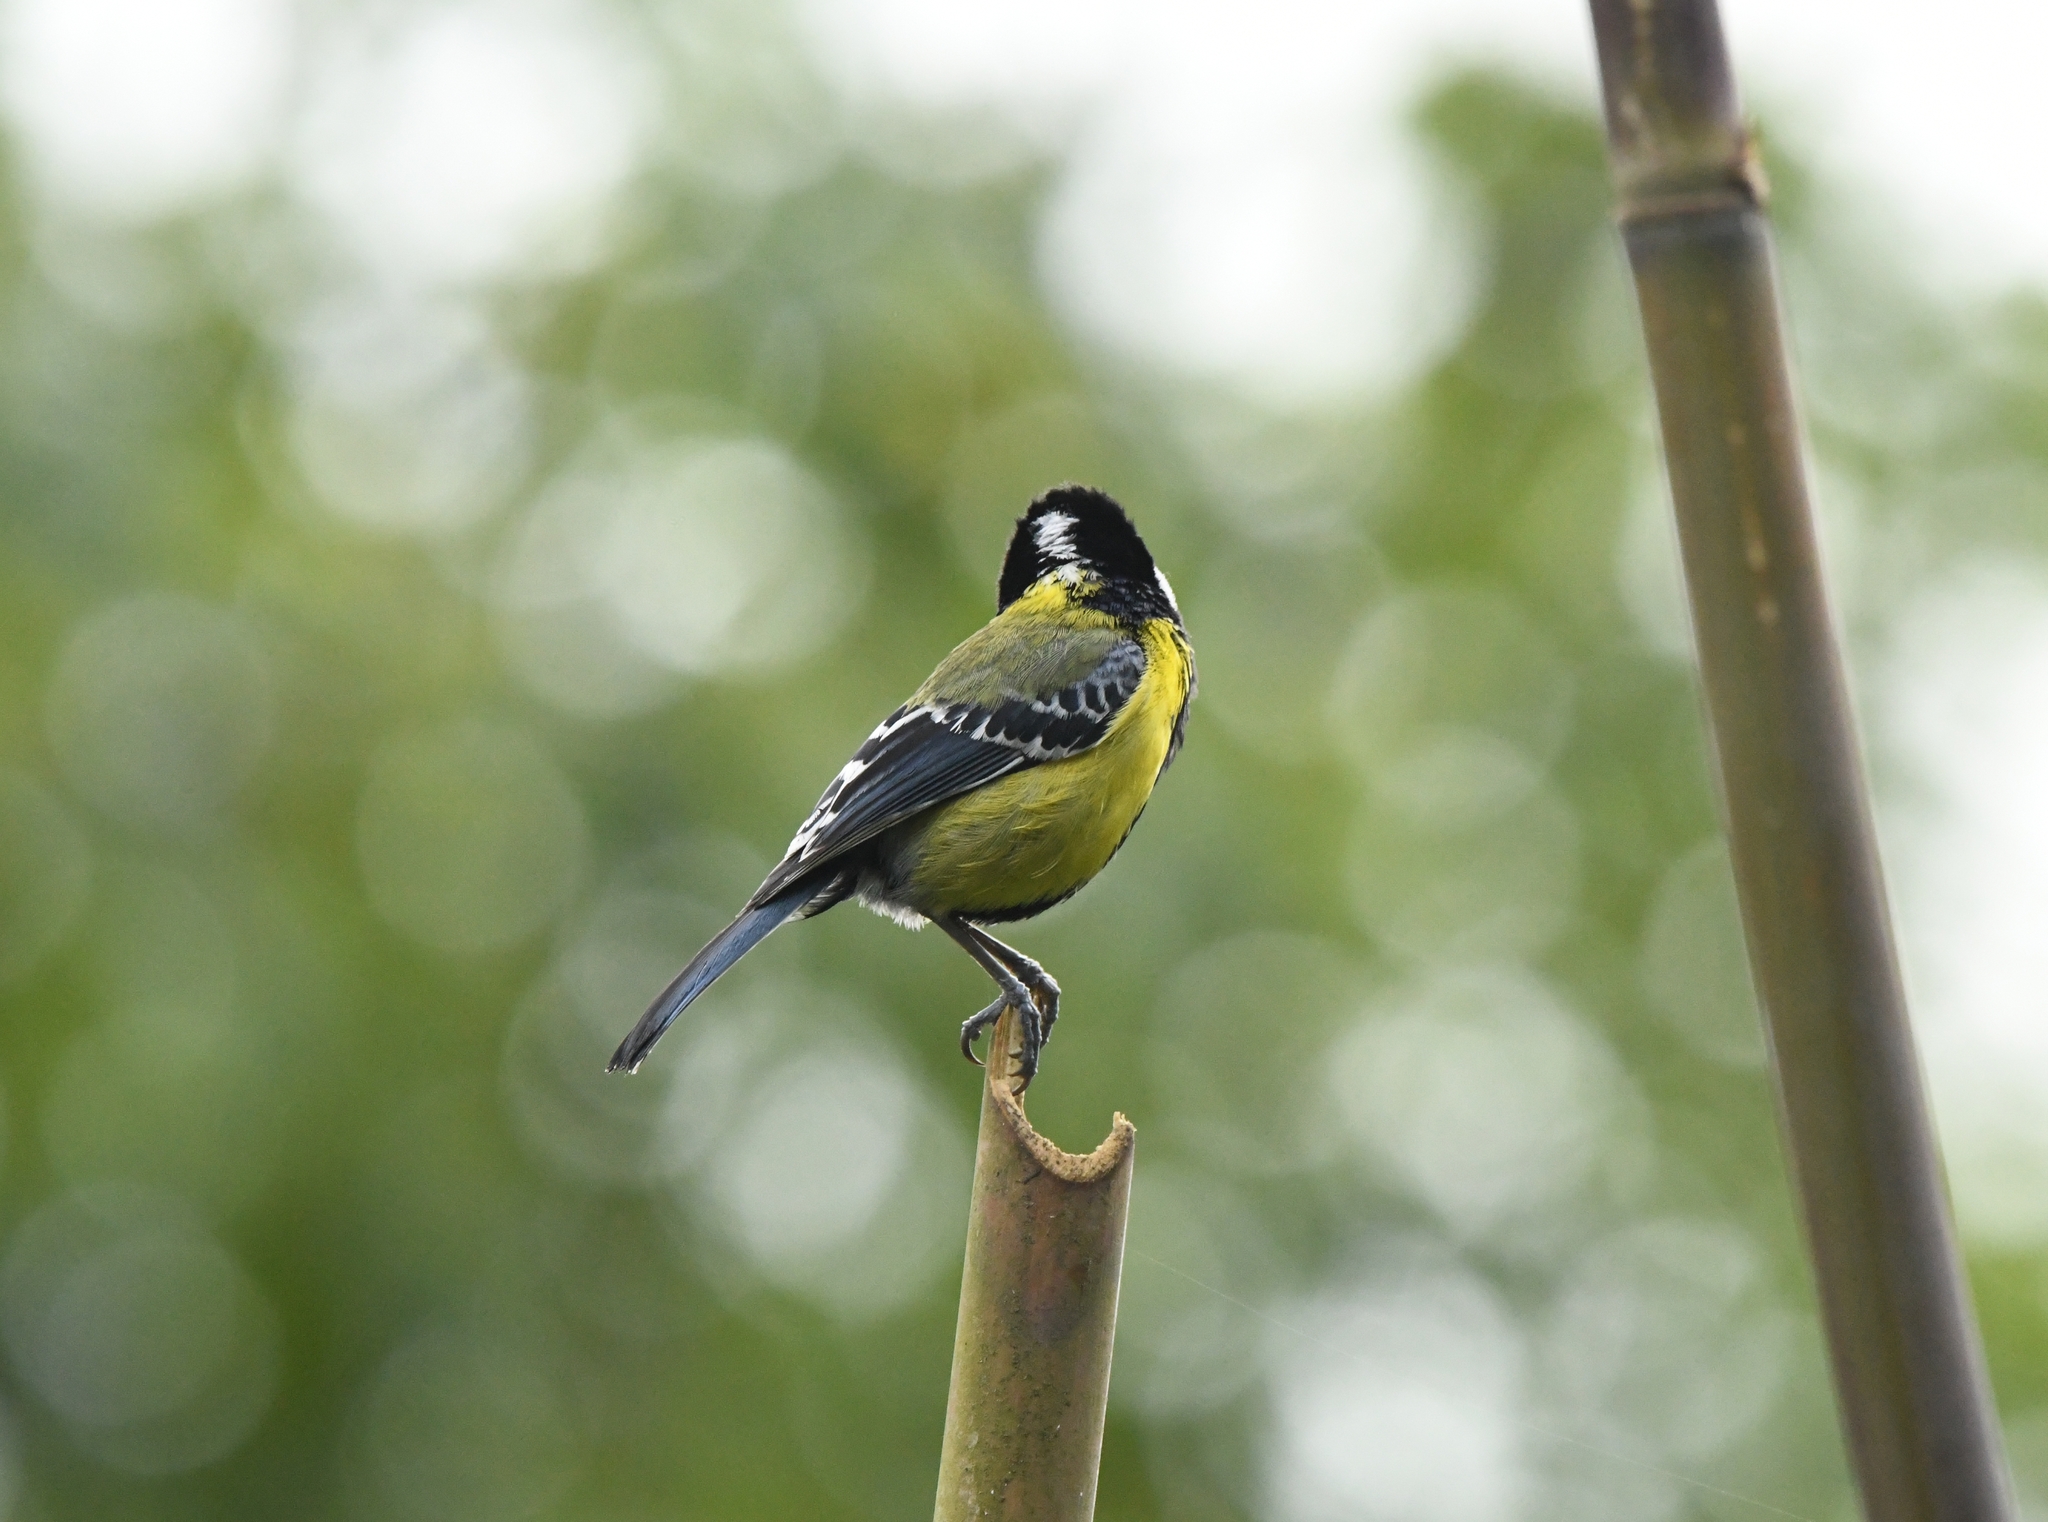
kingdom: Animalia
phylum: Chordata
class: Aves
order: Passeriformes
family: Paridae
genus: Parus
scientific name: Parus monticolus
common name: Green-backed tit
